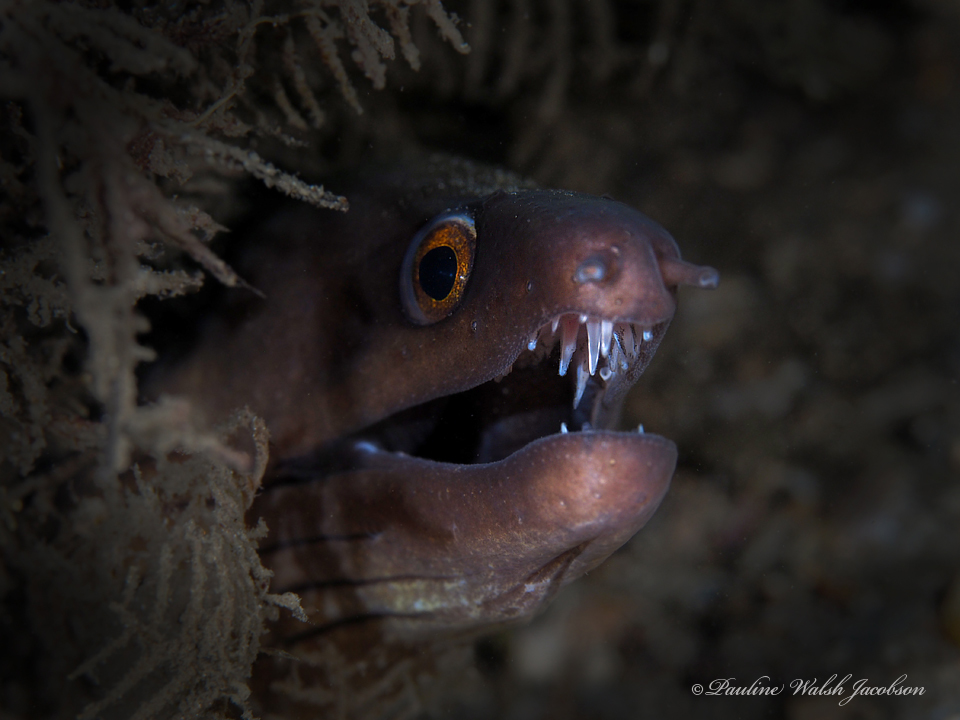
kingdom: Animalia
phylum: Chordata
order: Anguilliformes
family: Muraenidae
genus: Gymnothorax
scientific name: Gymnothorax vicinus
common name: Purplemouth moray
